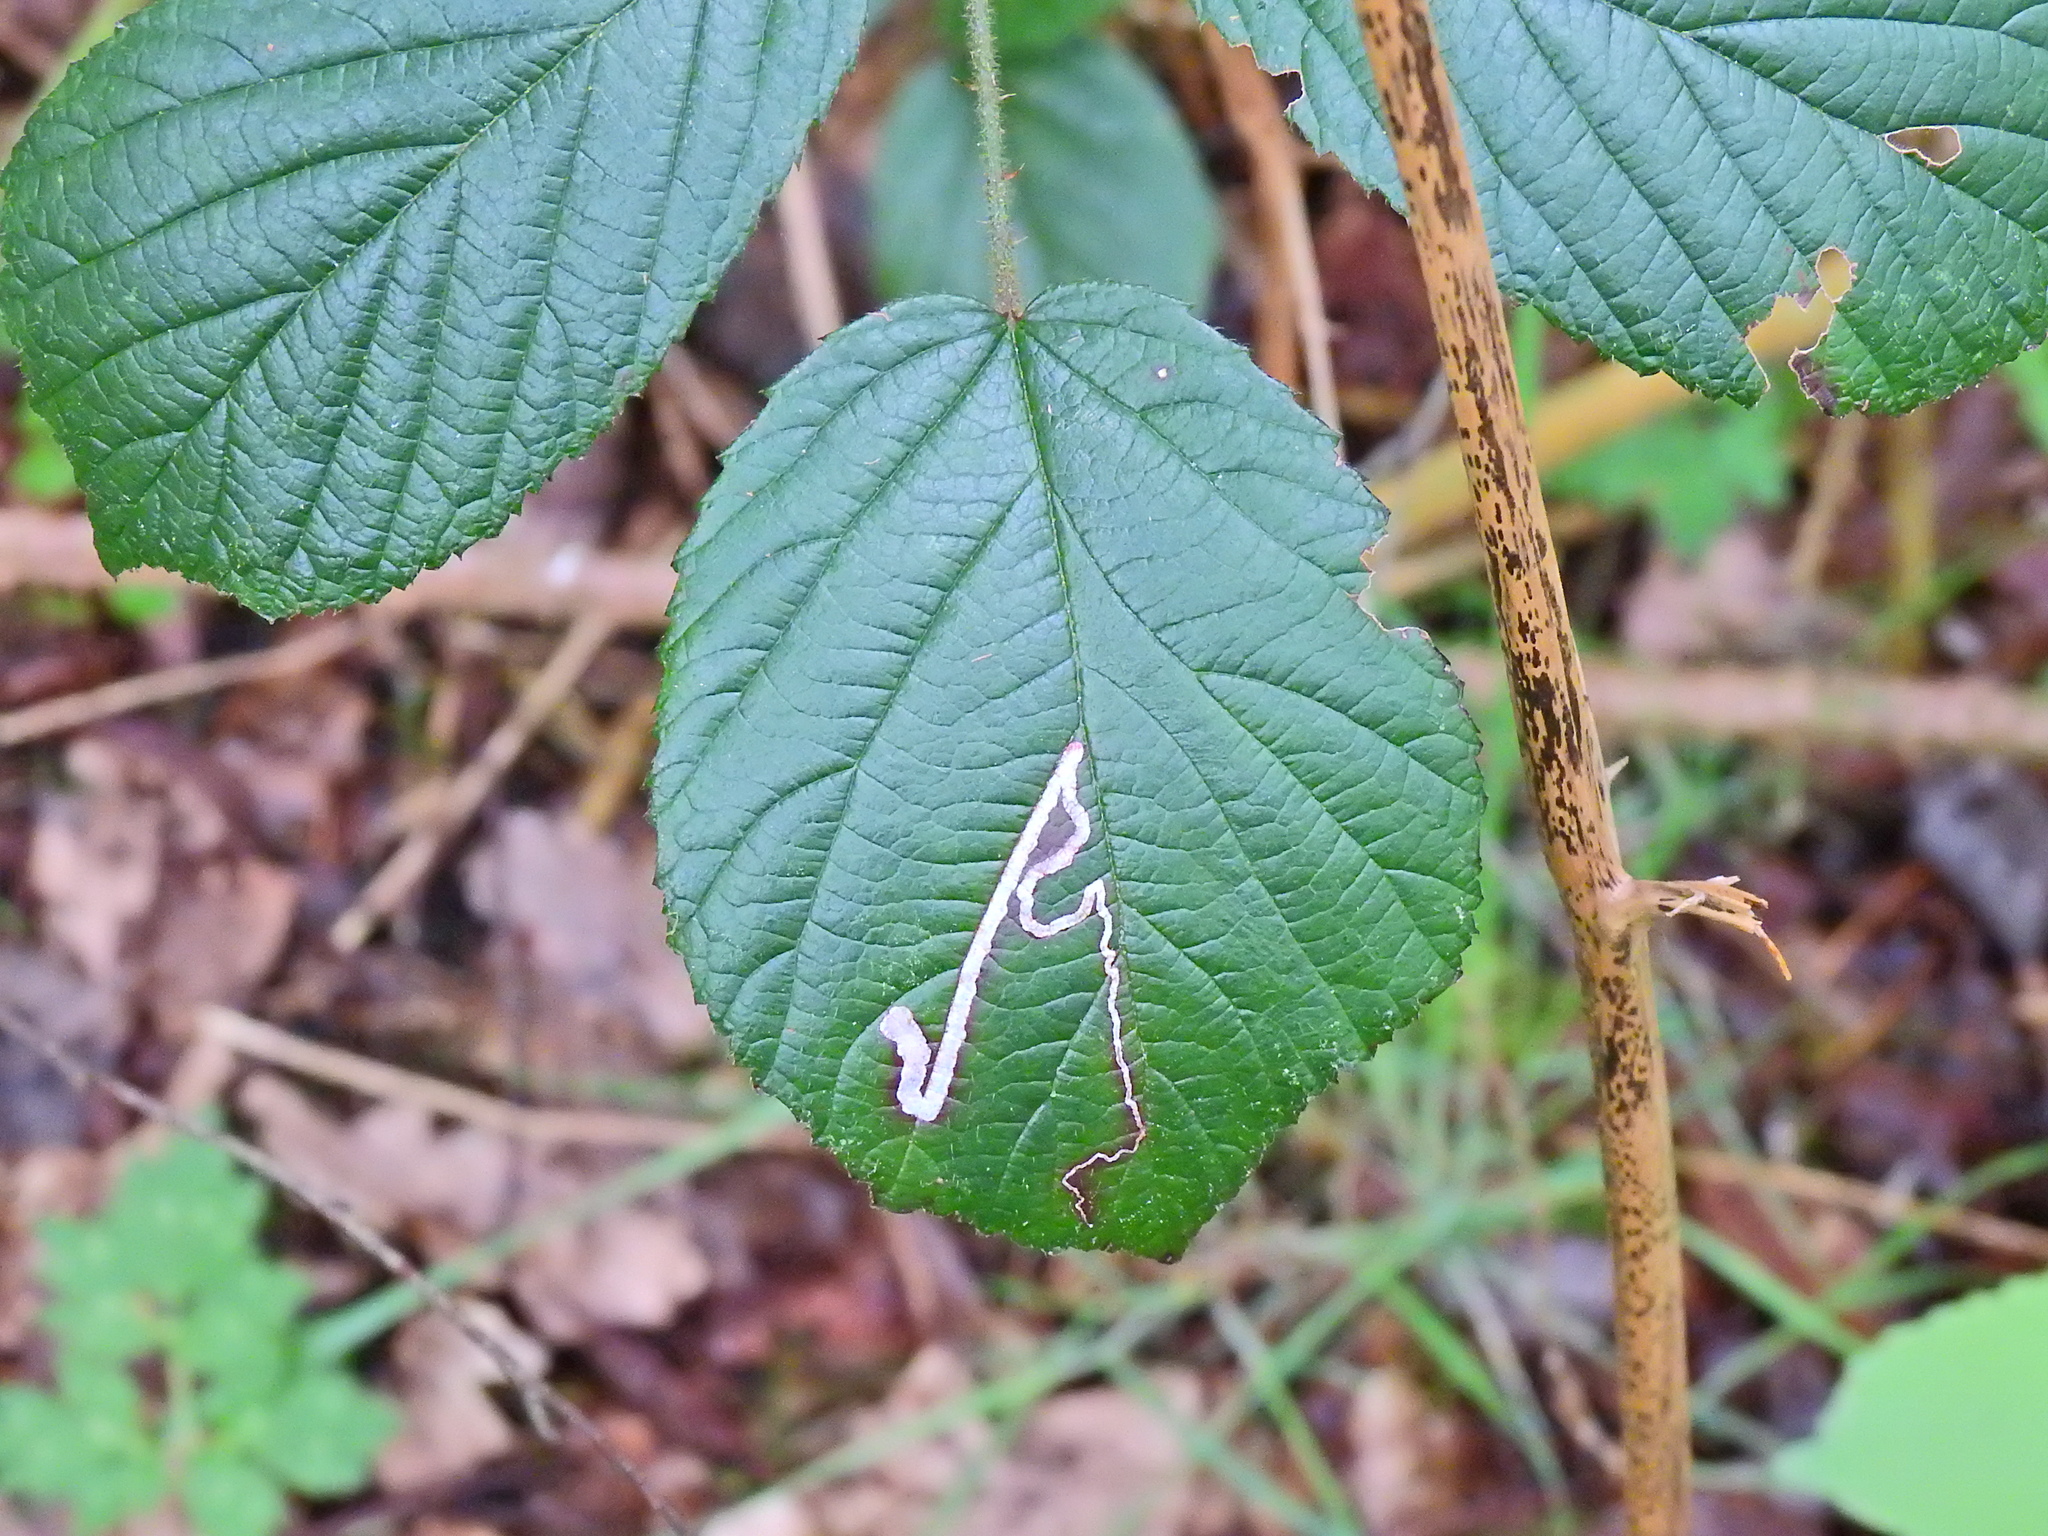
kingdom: Animalia
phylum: Arthropoda
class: Insecta
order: Lepidoptera
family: Nepticulidae
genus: Stigmella
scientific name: Stigmella aurella
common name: Golden pigmy
